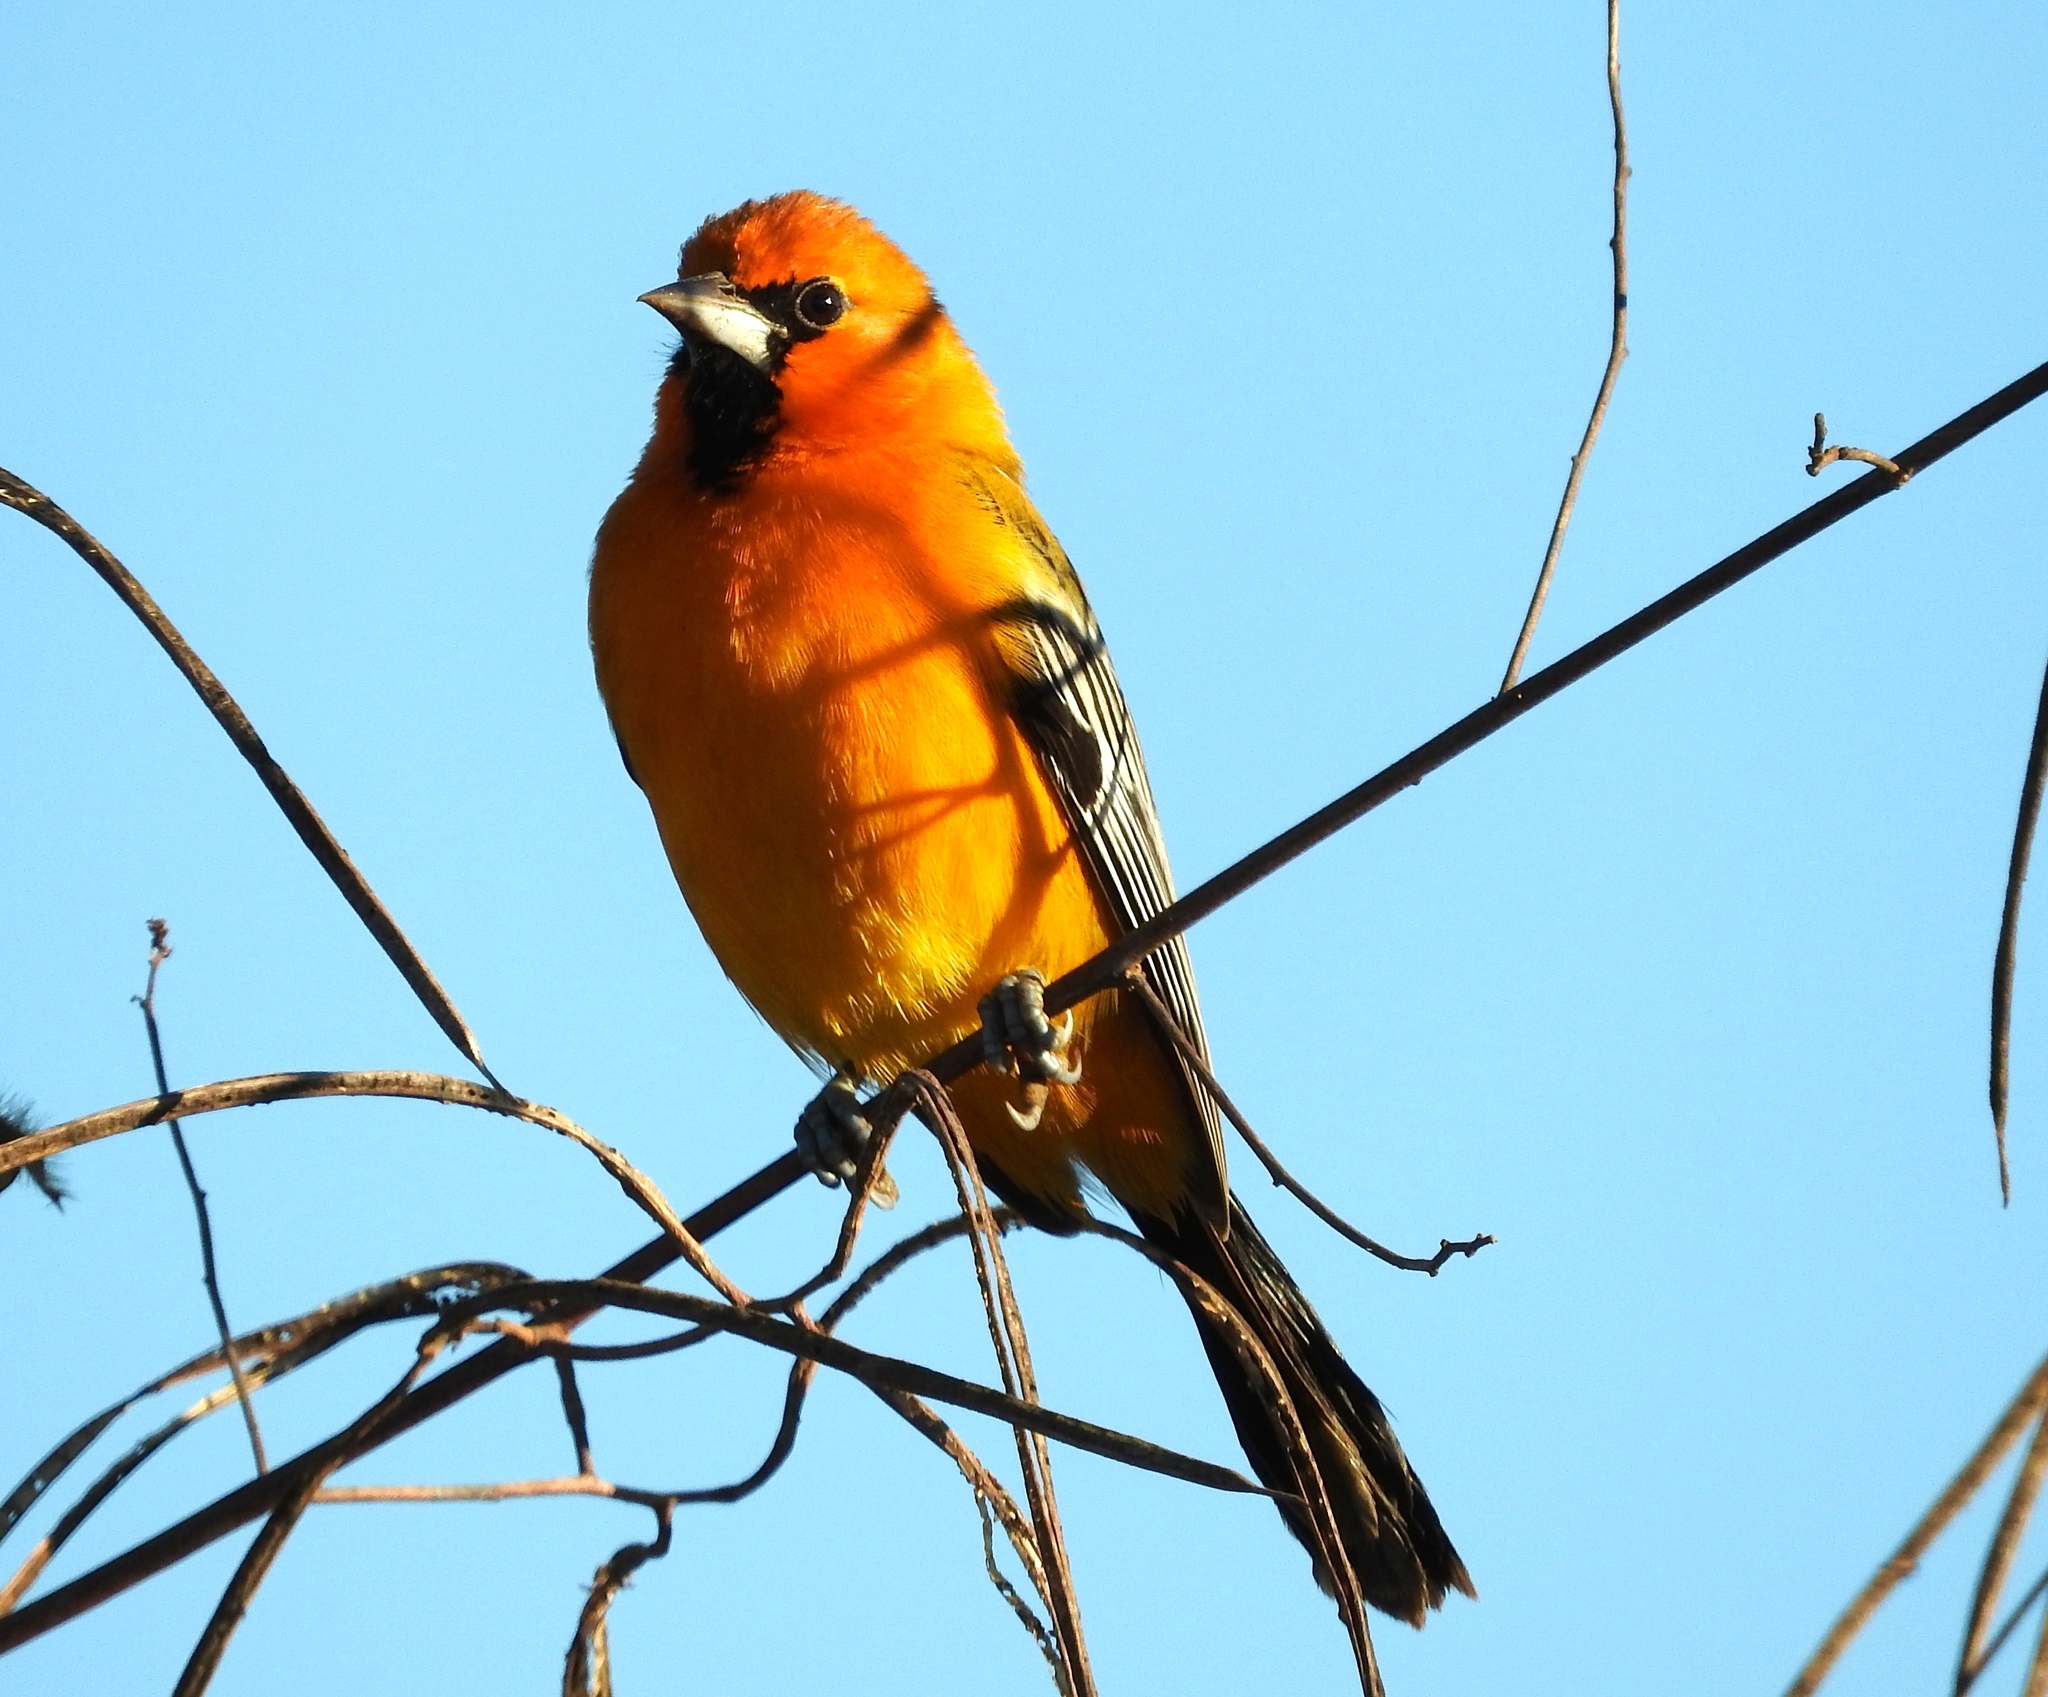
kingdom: Animalia
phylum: Chordata
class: Aves
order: Passeriformes
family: Icteridae
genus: Icterus
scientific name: Icterus pustulatus
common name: Streak-backed oriole
